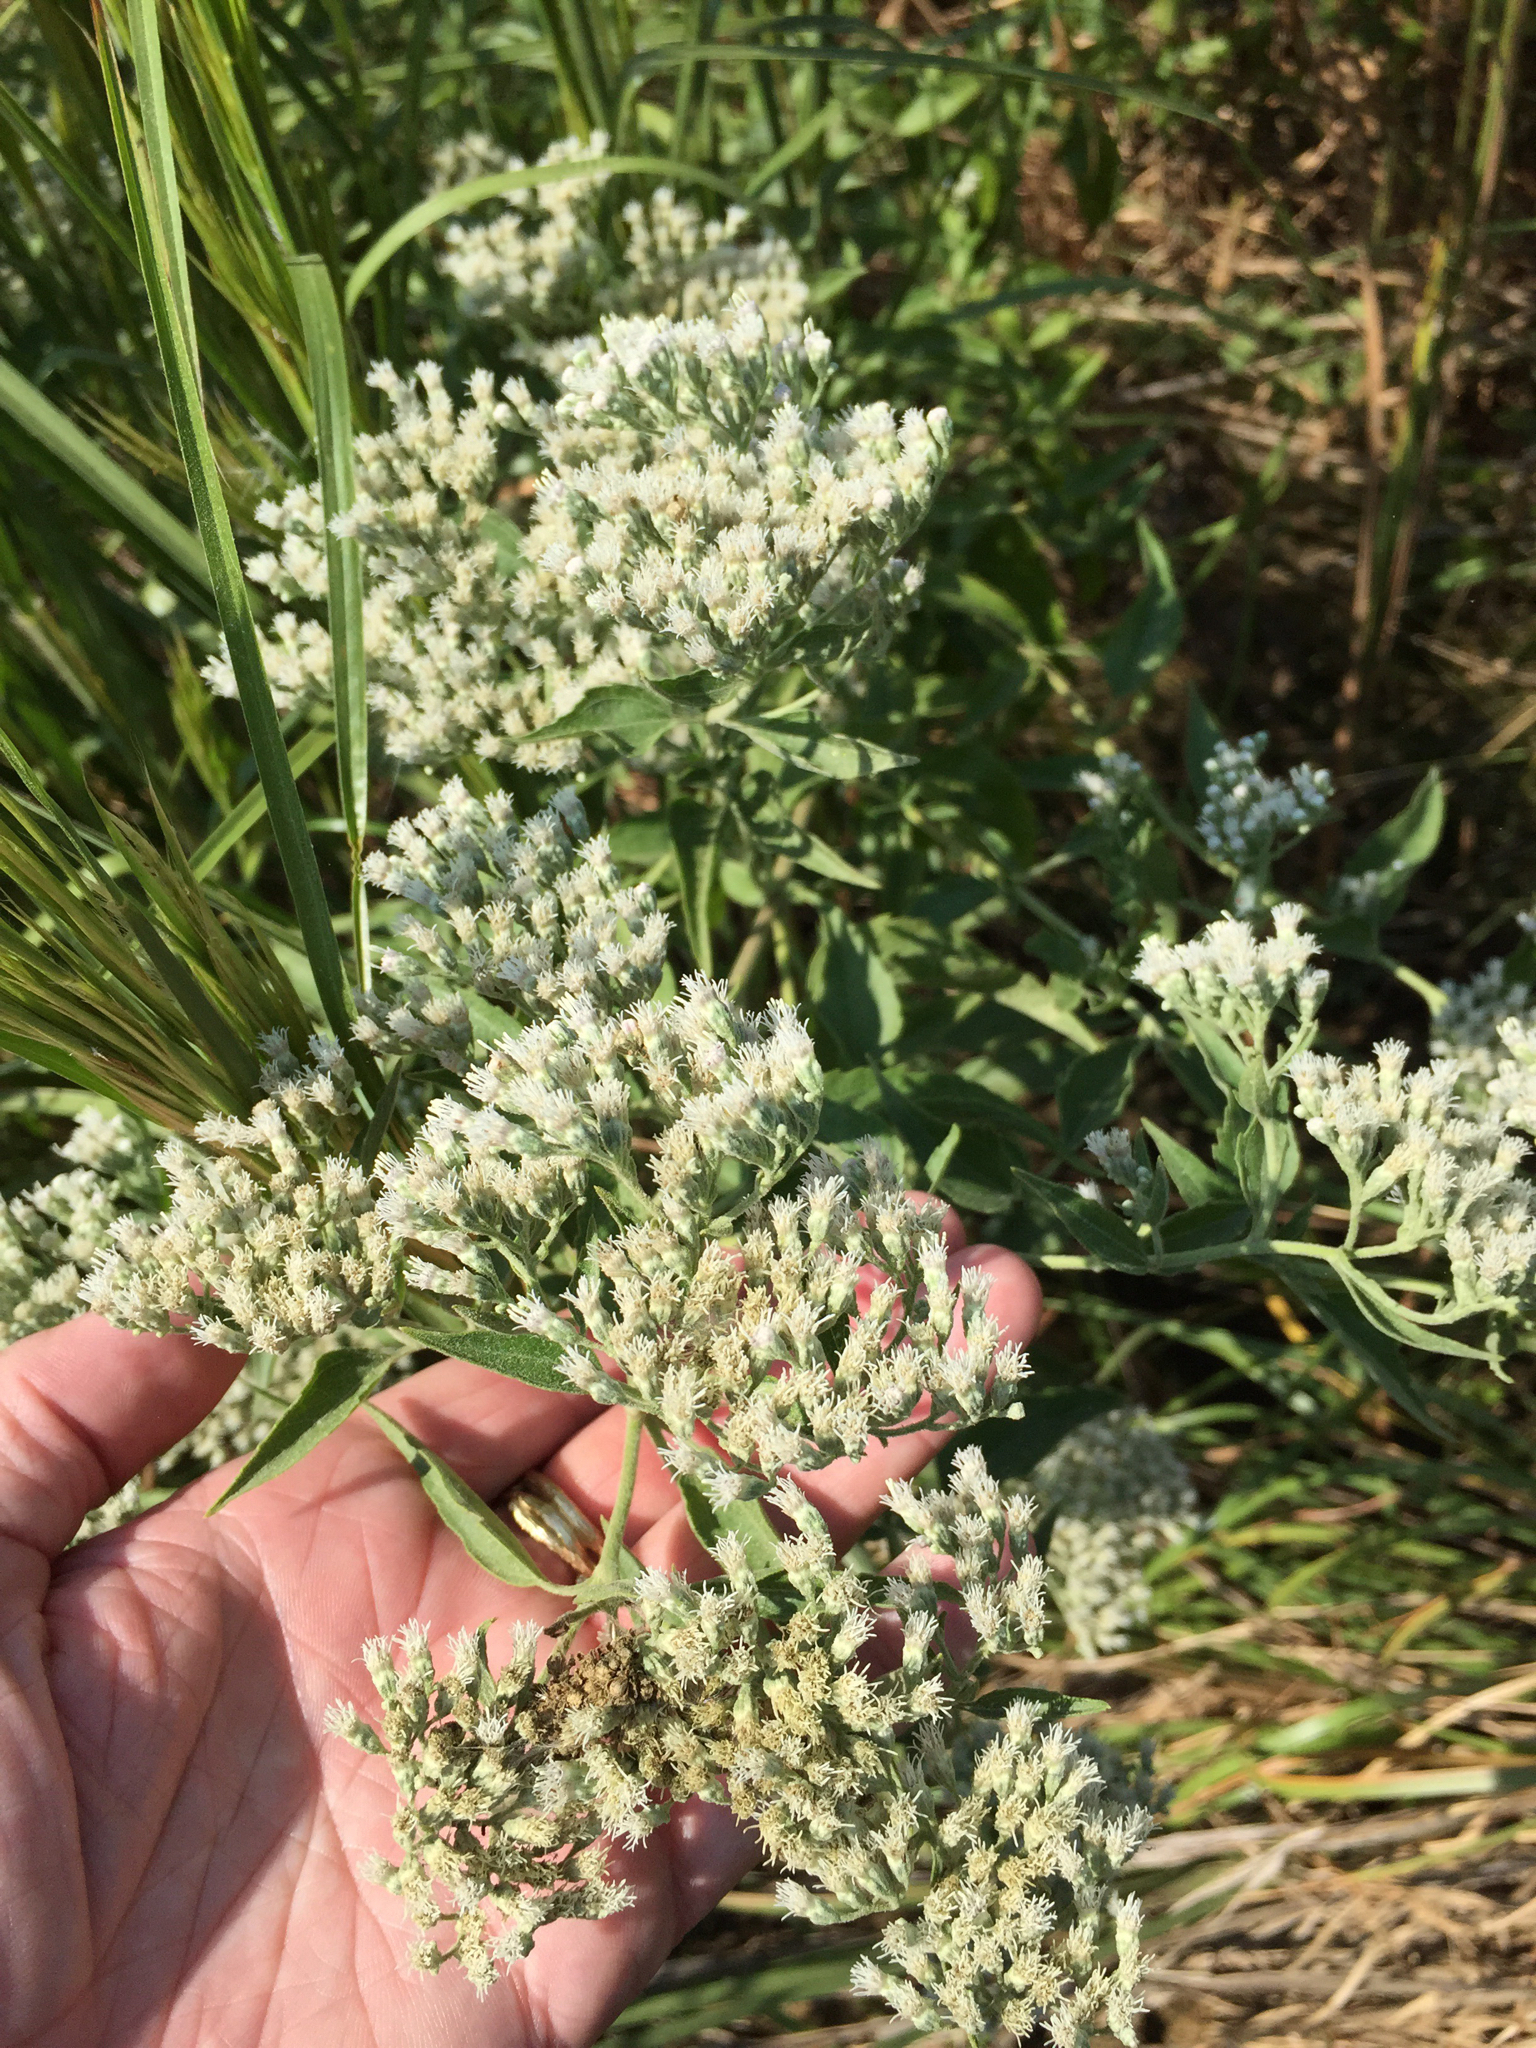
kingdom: Plantae
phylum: Tracheophyta
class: Magnoliopsida
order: Asterales
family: Asteraceae
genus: Eupatorium
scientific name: Eupatorium serotinum
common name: Late boneset
